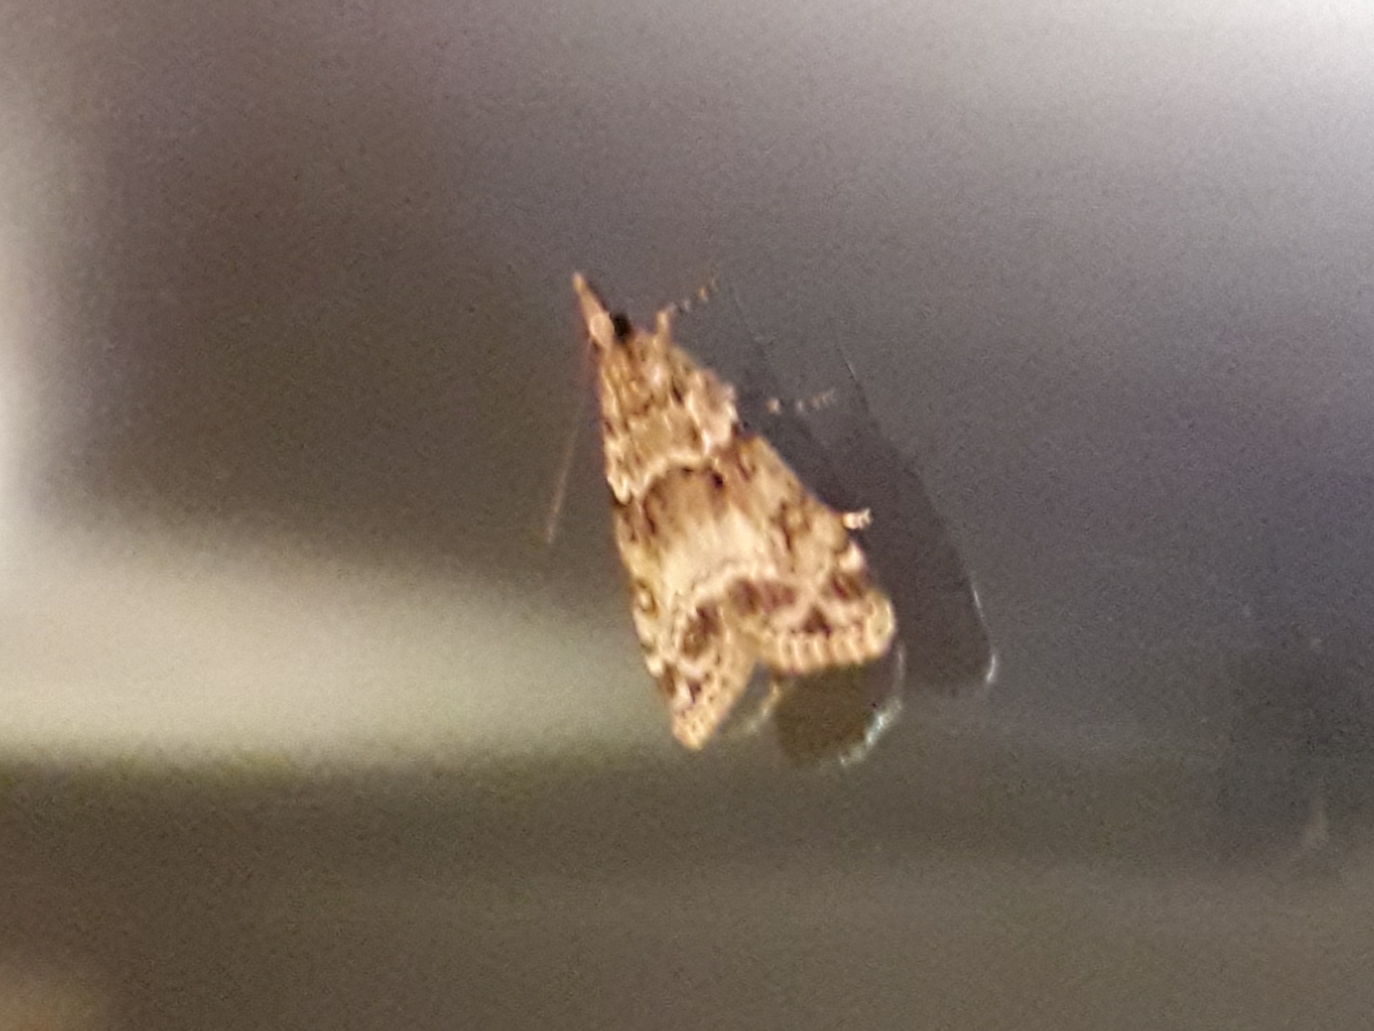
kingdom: Animalia
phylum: Arthropoda
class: Insecta
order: Lepidoptera
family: Crambidae
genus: Eudonia
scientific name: Eudonia mercurella
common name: Small grey
